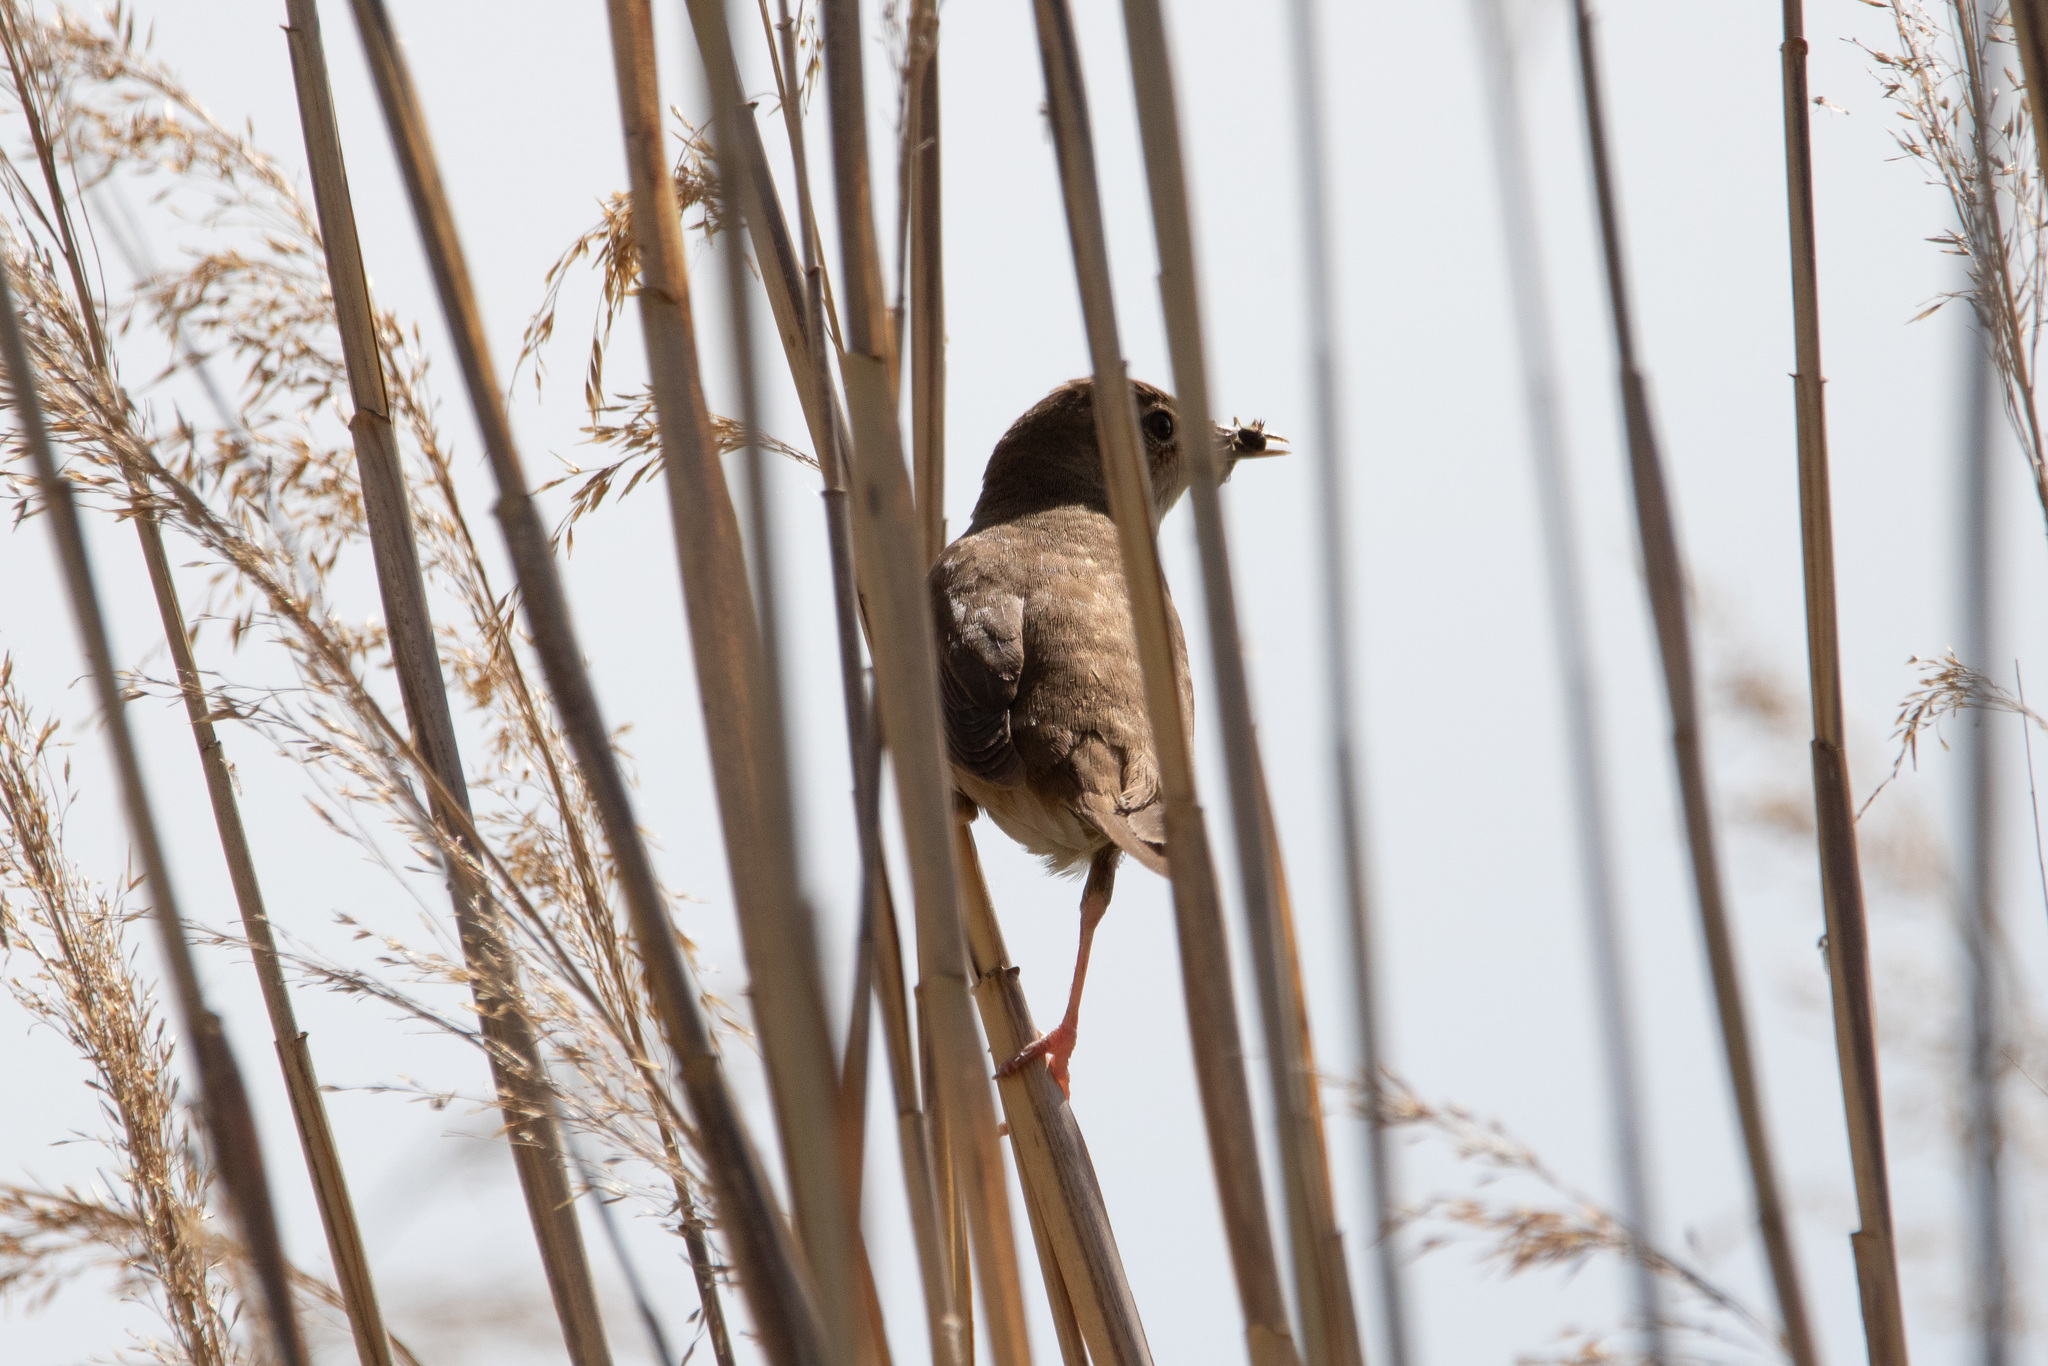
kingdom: Animalia
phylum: Chordata
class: Aves
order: Passeriformes
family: Locustellidae
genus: Locustella
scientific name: Locustella luscinioides
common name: Savi's warbler
